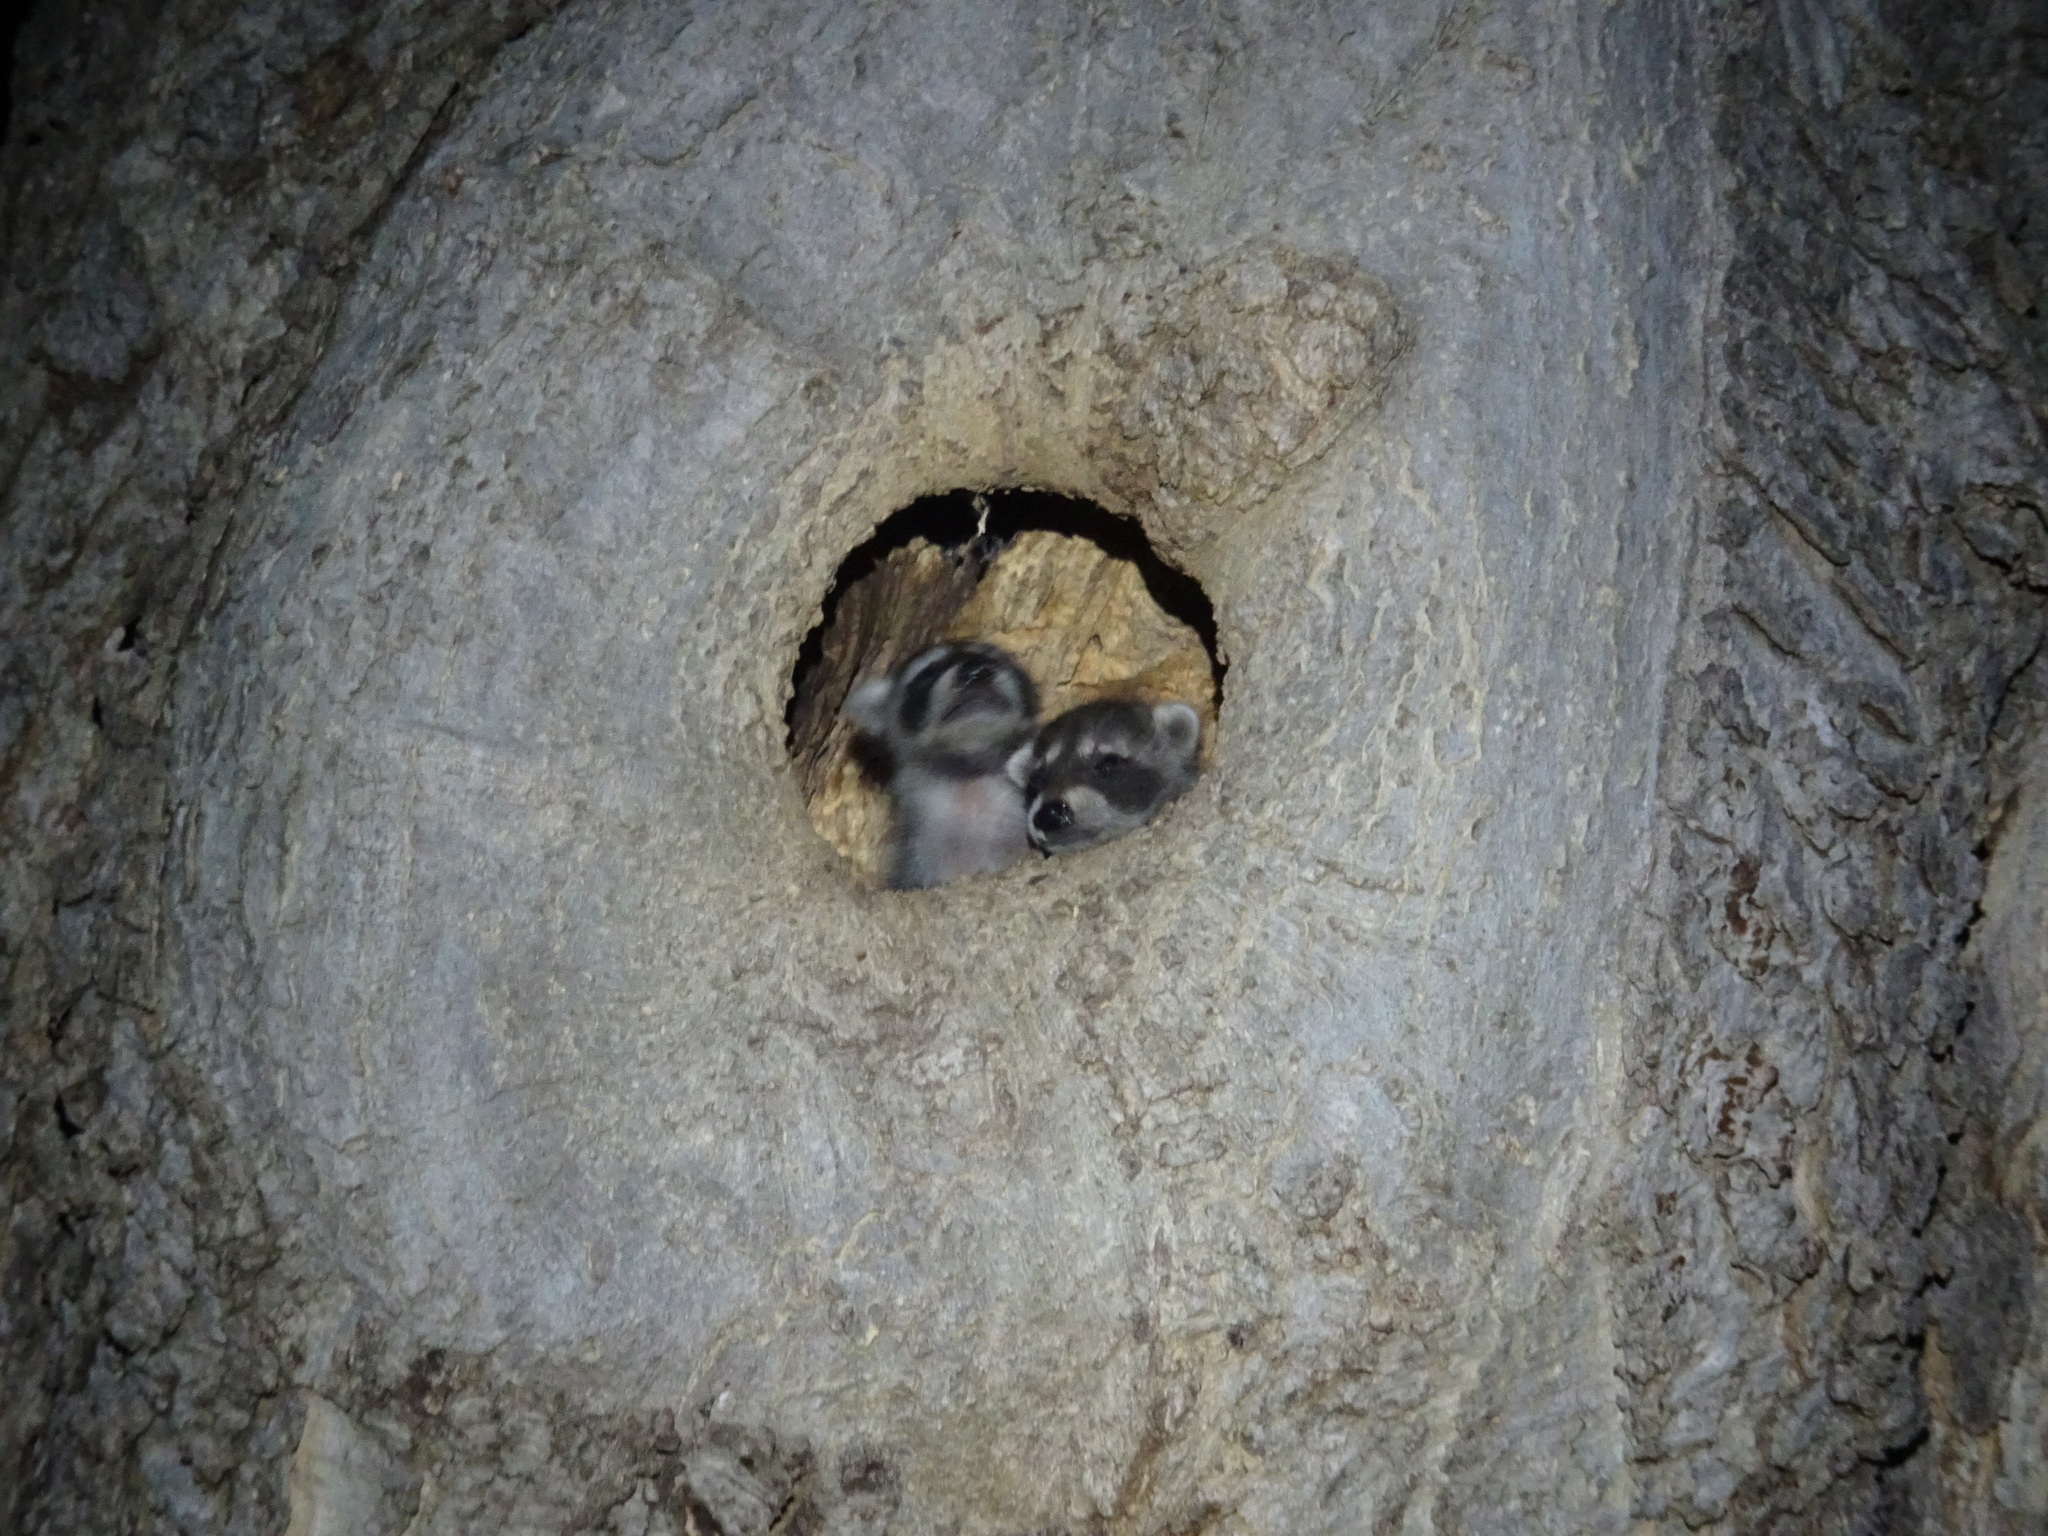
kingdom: Animalia
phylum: Chordata
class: Mammalia
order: Carnivora
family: Procyonidae
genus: Procyon
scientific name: Procyon lotor
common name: Raccoon
